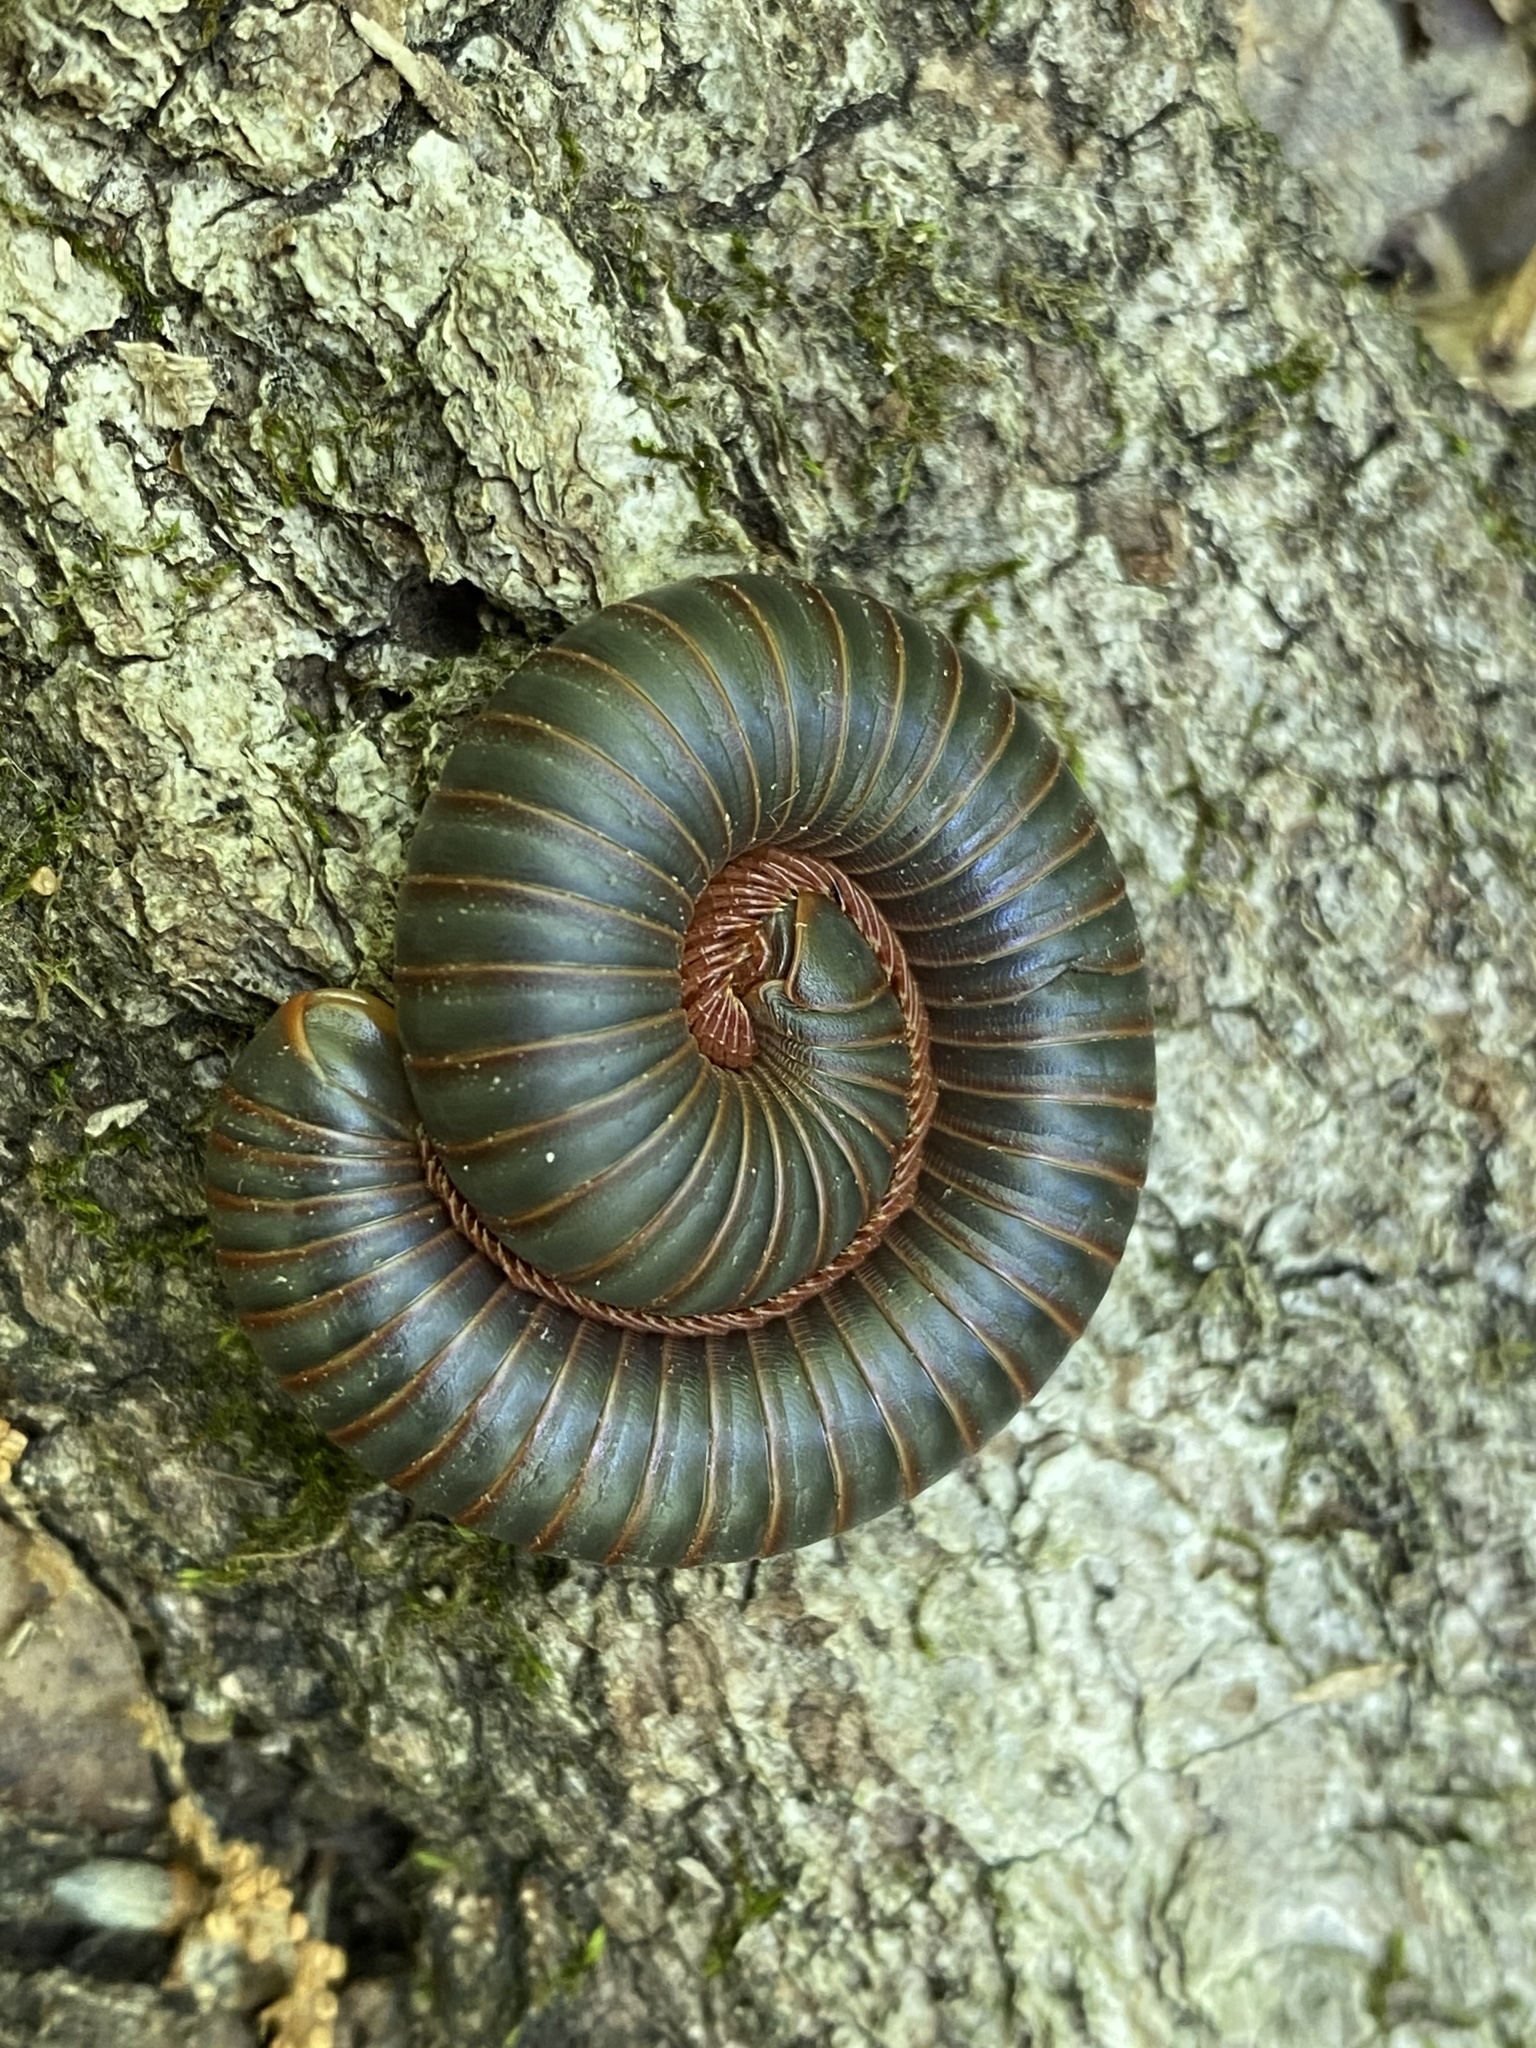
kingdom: Animalia
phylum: Arthropoda
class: Diplopoda
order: Spirobolida
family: Spirobolidae
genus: Narceus
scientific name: Narceus
